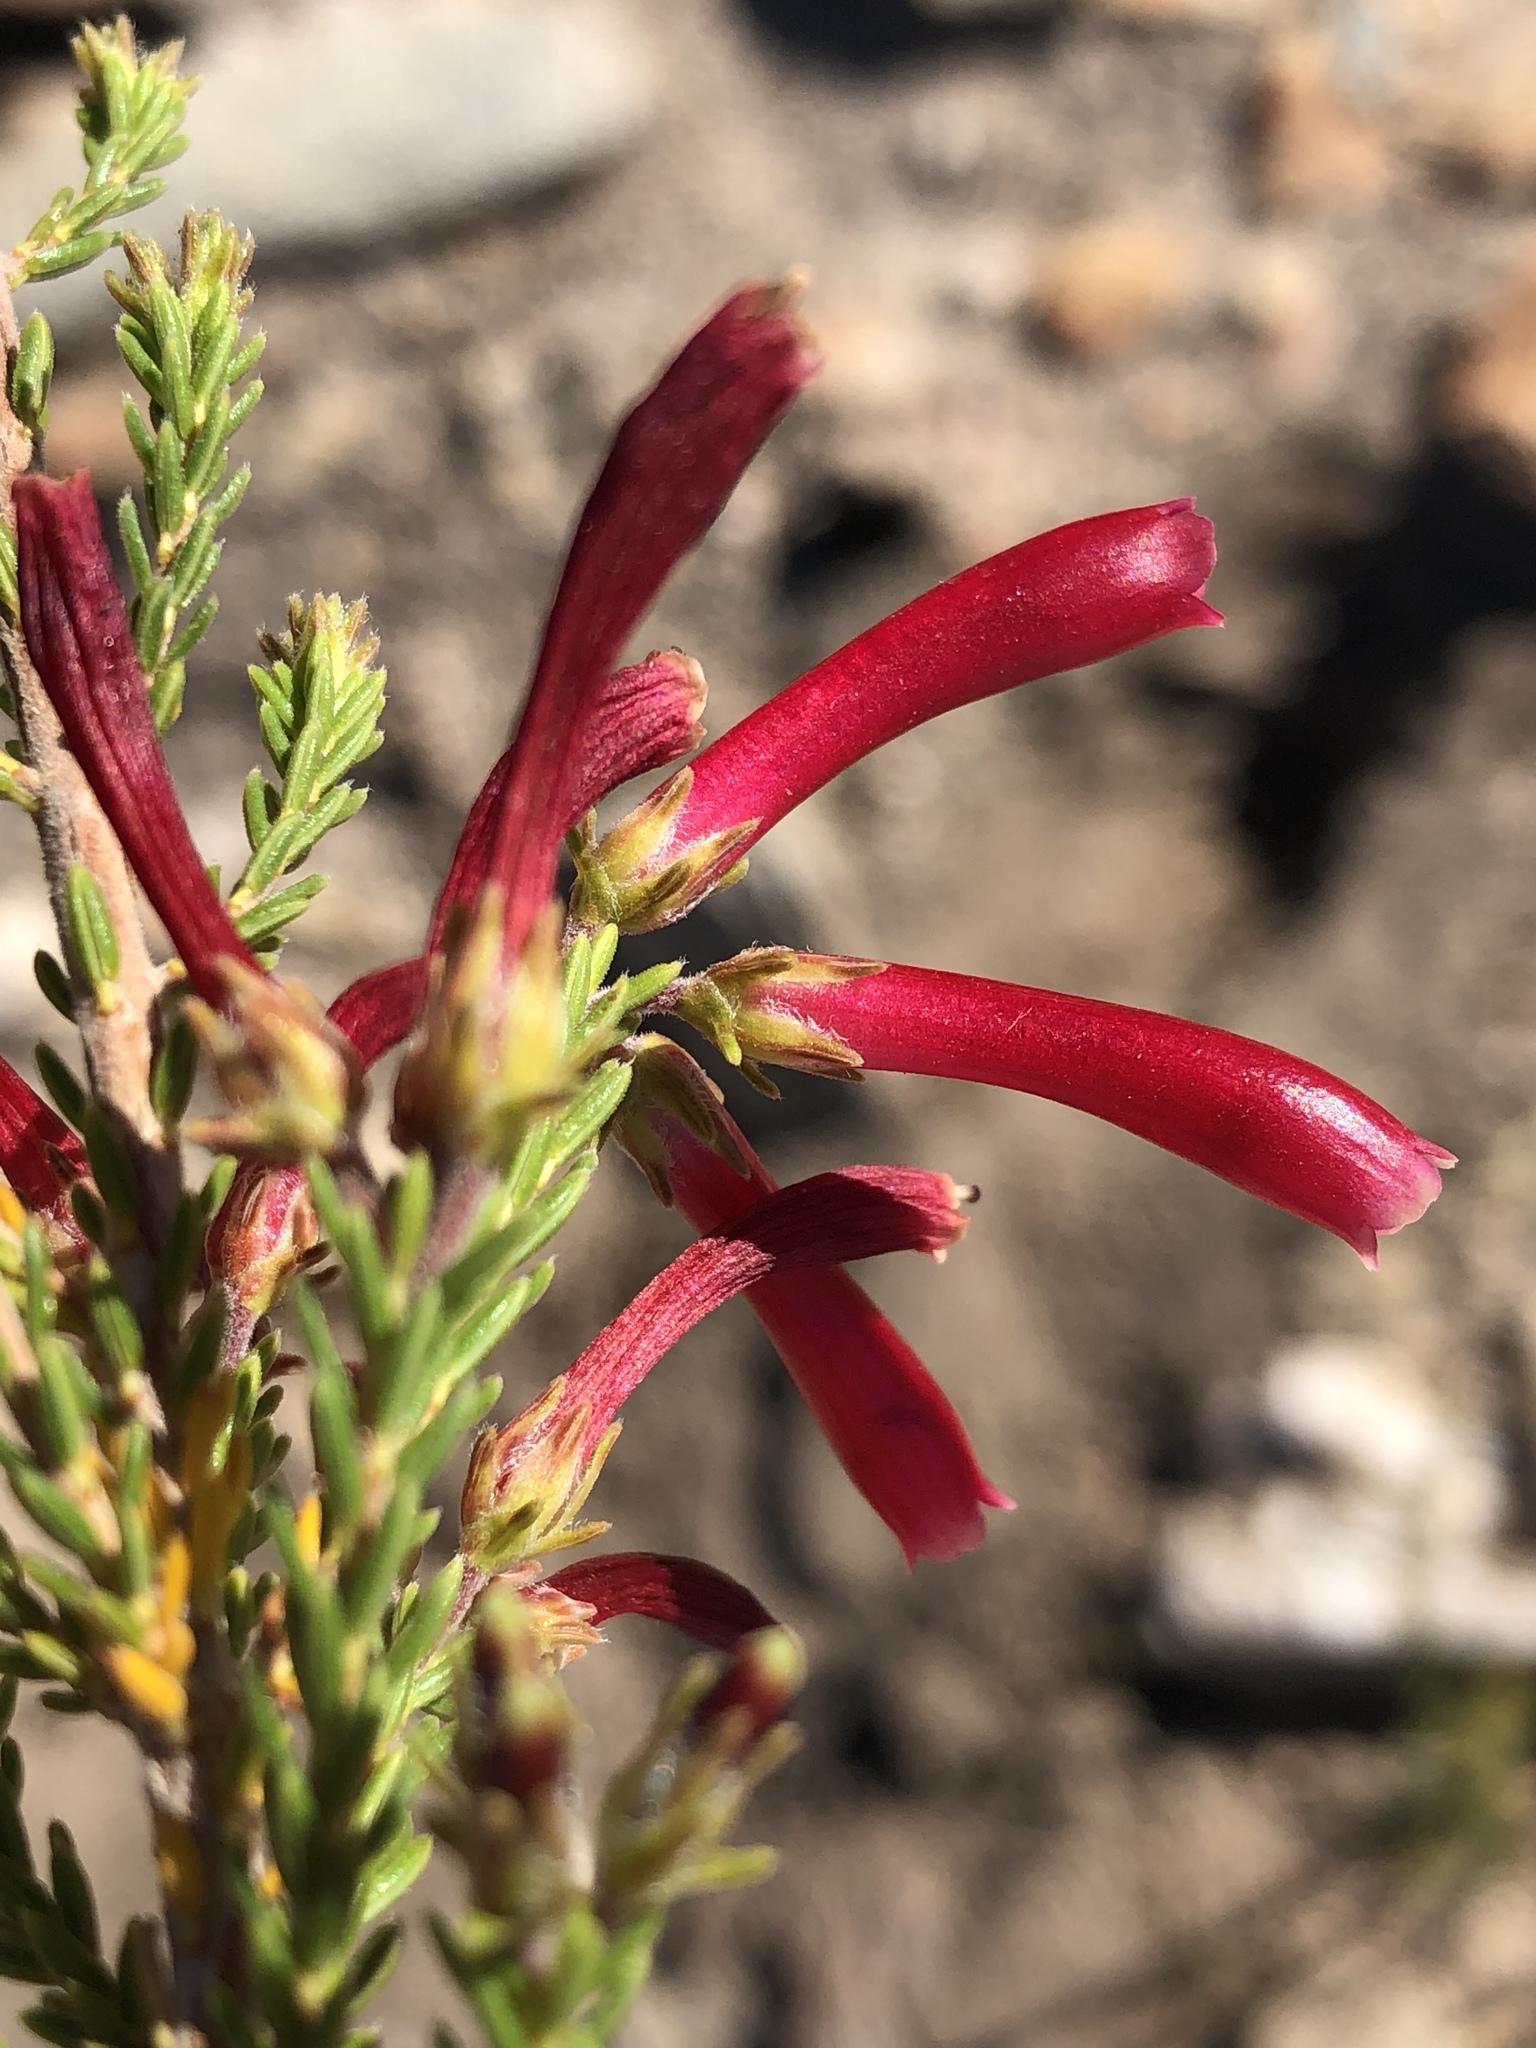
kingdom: Plantae
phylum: Tracheophyta
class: Magnoliopsida
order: Ericales
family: Ericaceae
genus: Erica
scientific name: Erica discolor
